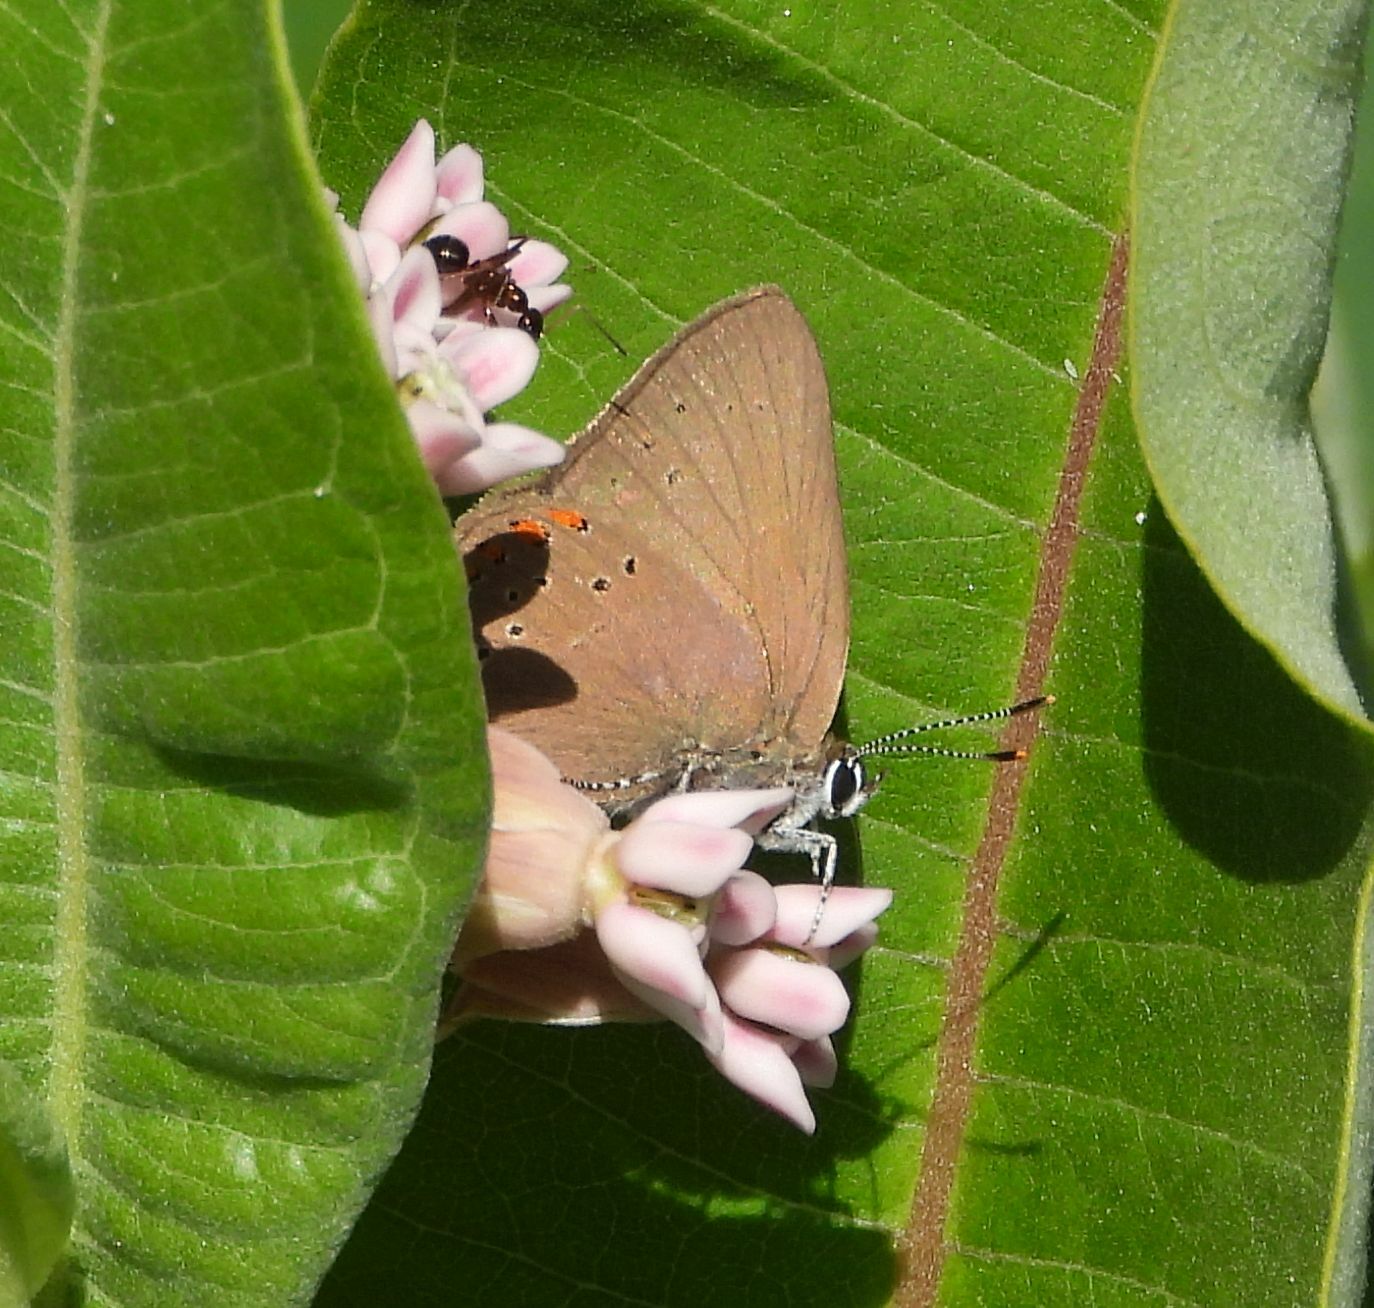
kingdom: Animalia
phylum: Arthropoda
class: Insecta
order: Lepidoptera
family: Lycaenidae
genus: Harkenclenus
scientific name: Harkenclenus titus
